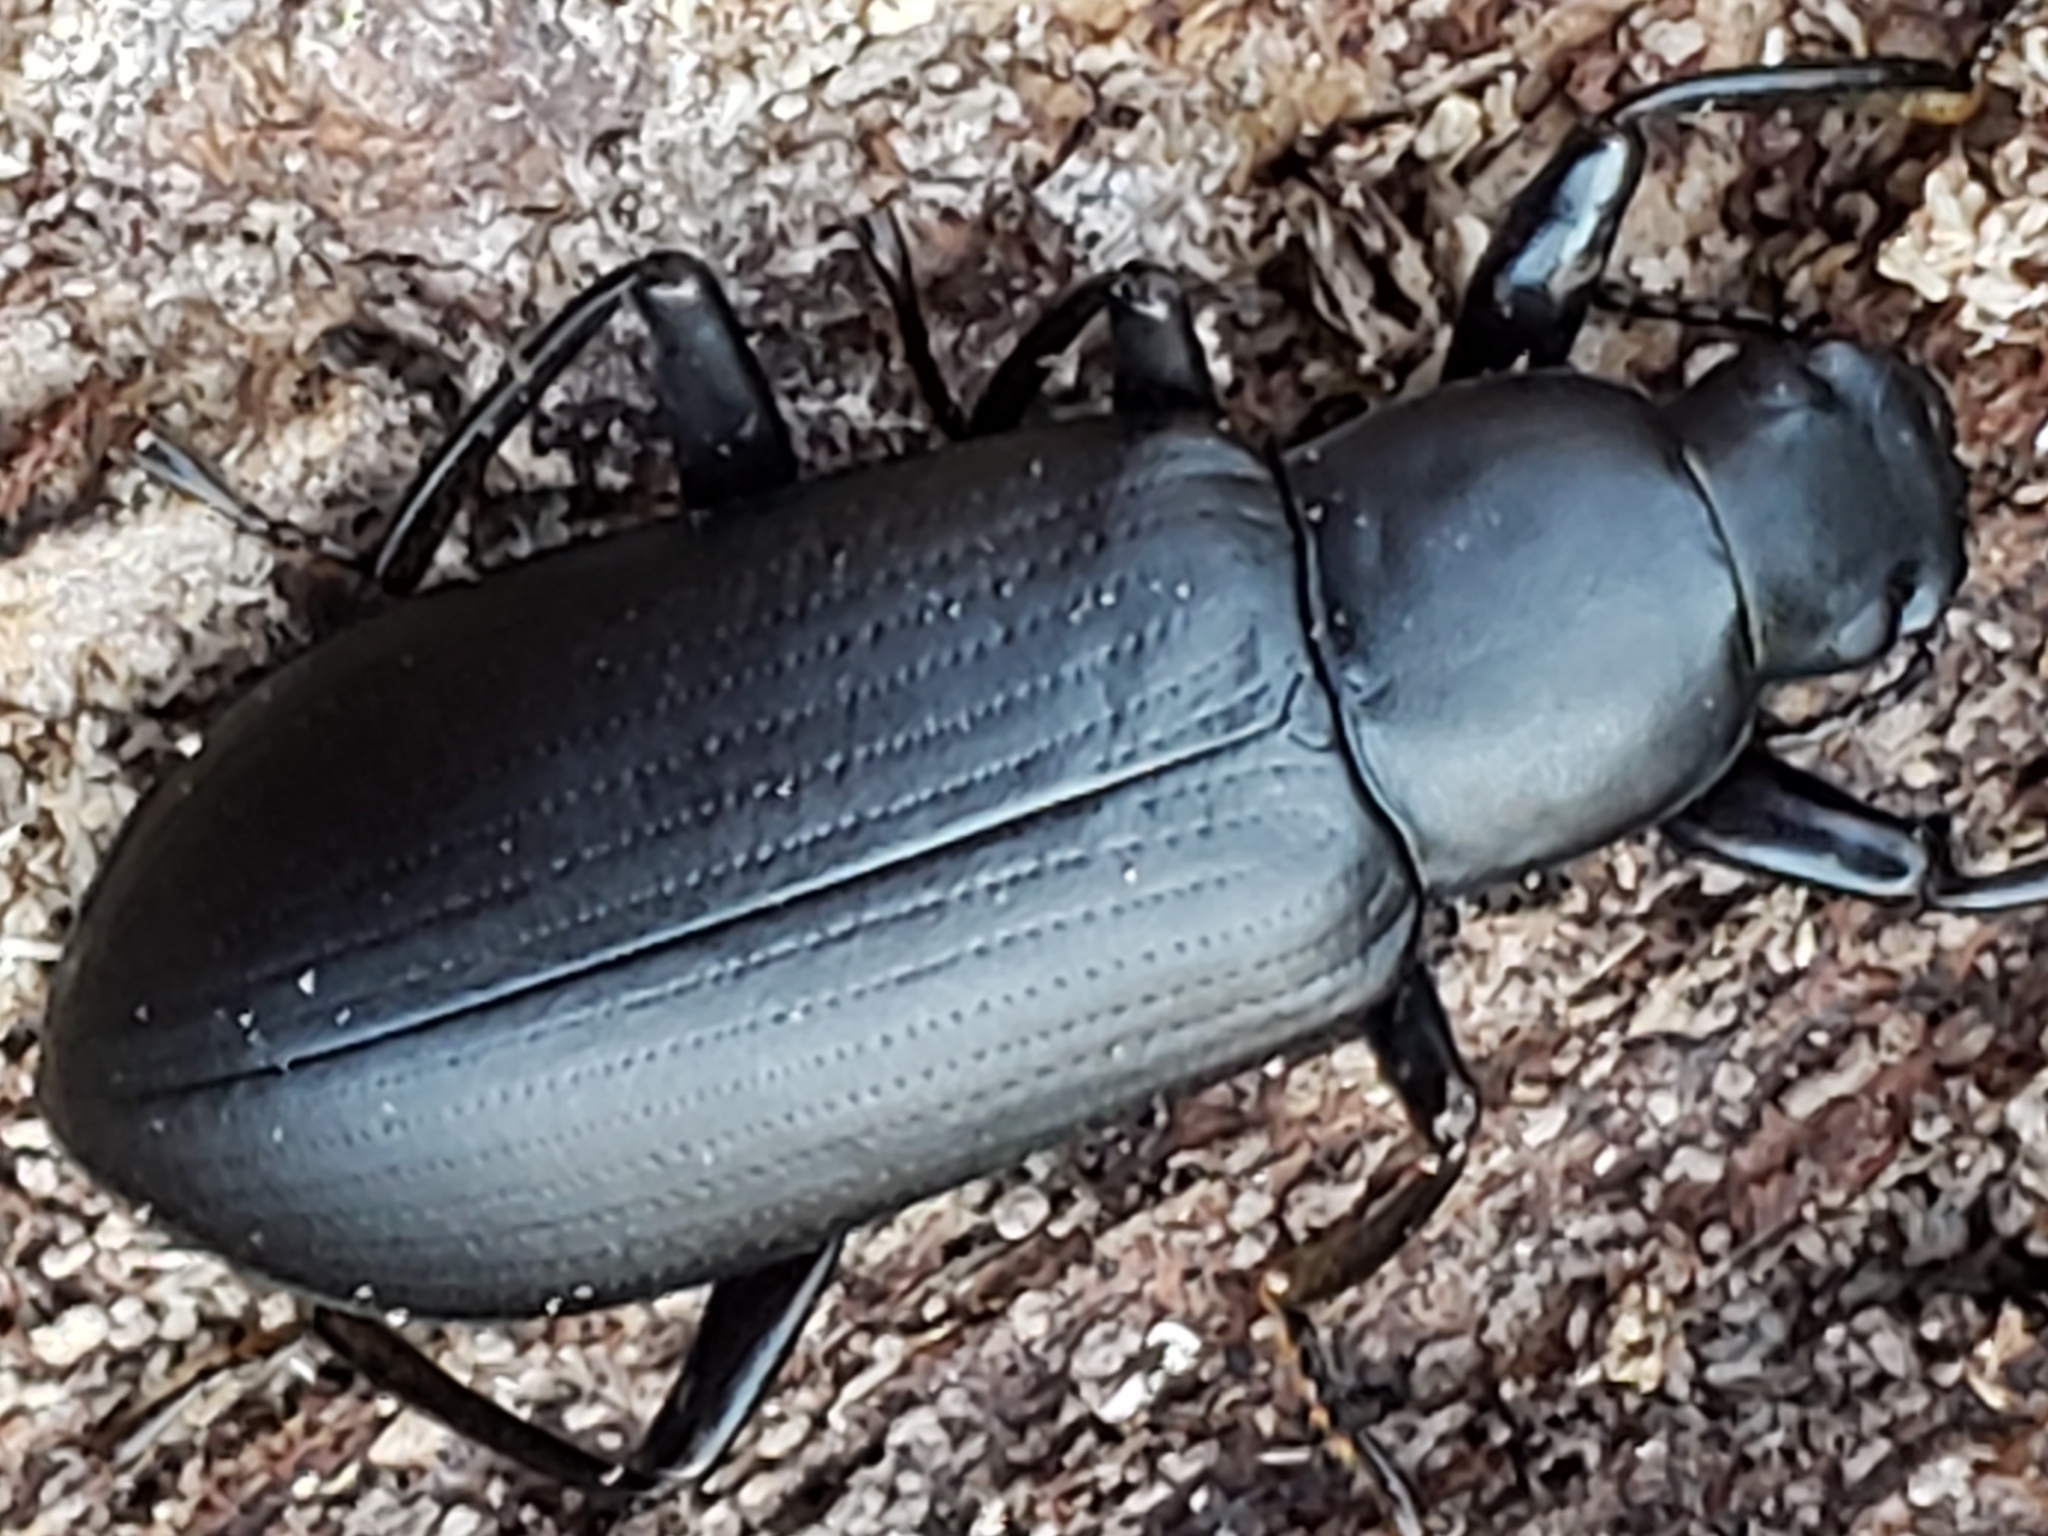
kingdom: Animalia
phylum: Arthropoda
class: Insecta
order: Coleoptera
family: Tenebrionidae
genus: Alobates
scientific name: Alobates
